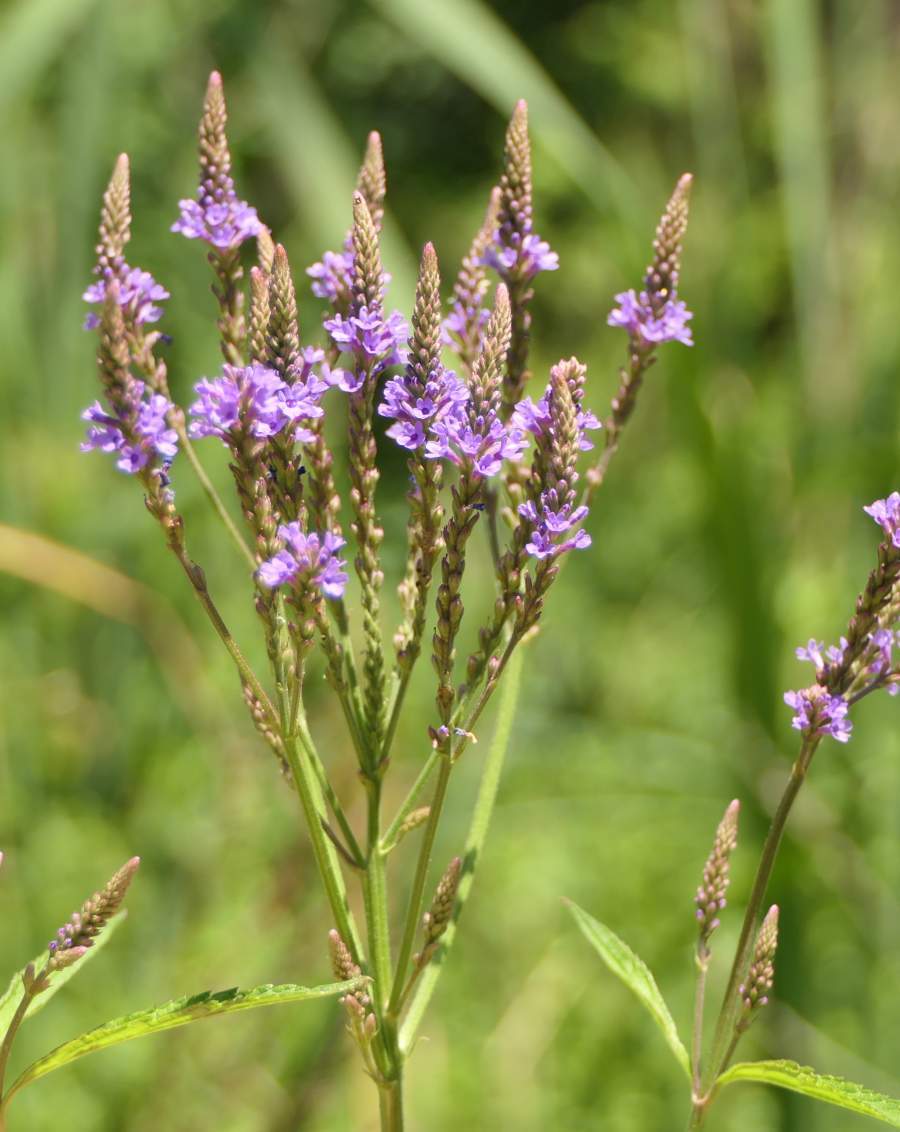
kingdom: Plantae
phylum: Tracheophyta
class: Magnoliopsida
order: Lamiales
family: Verbenaceae
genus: Verbena
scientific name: Verbena hastata
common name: American blue vervain
